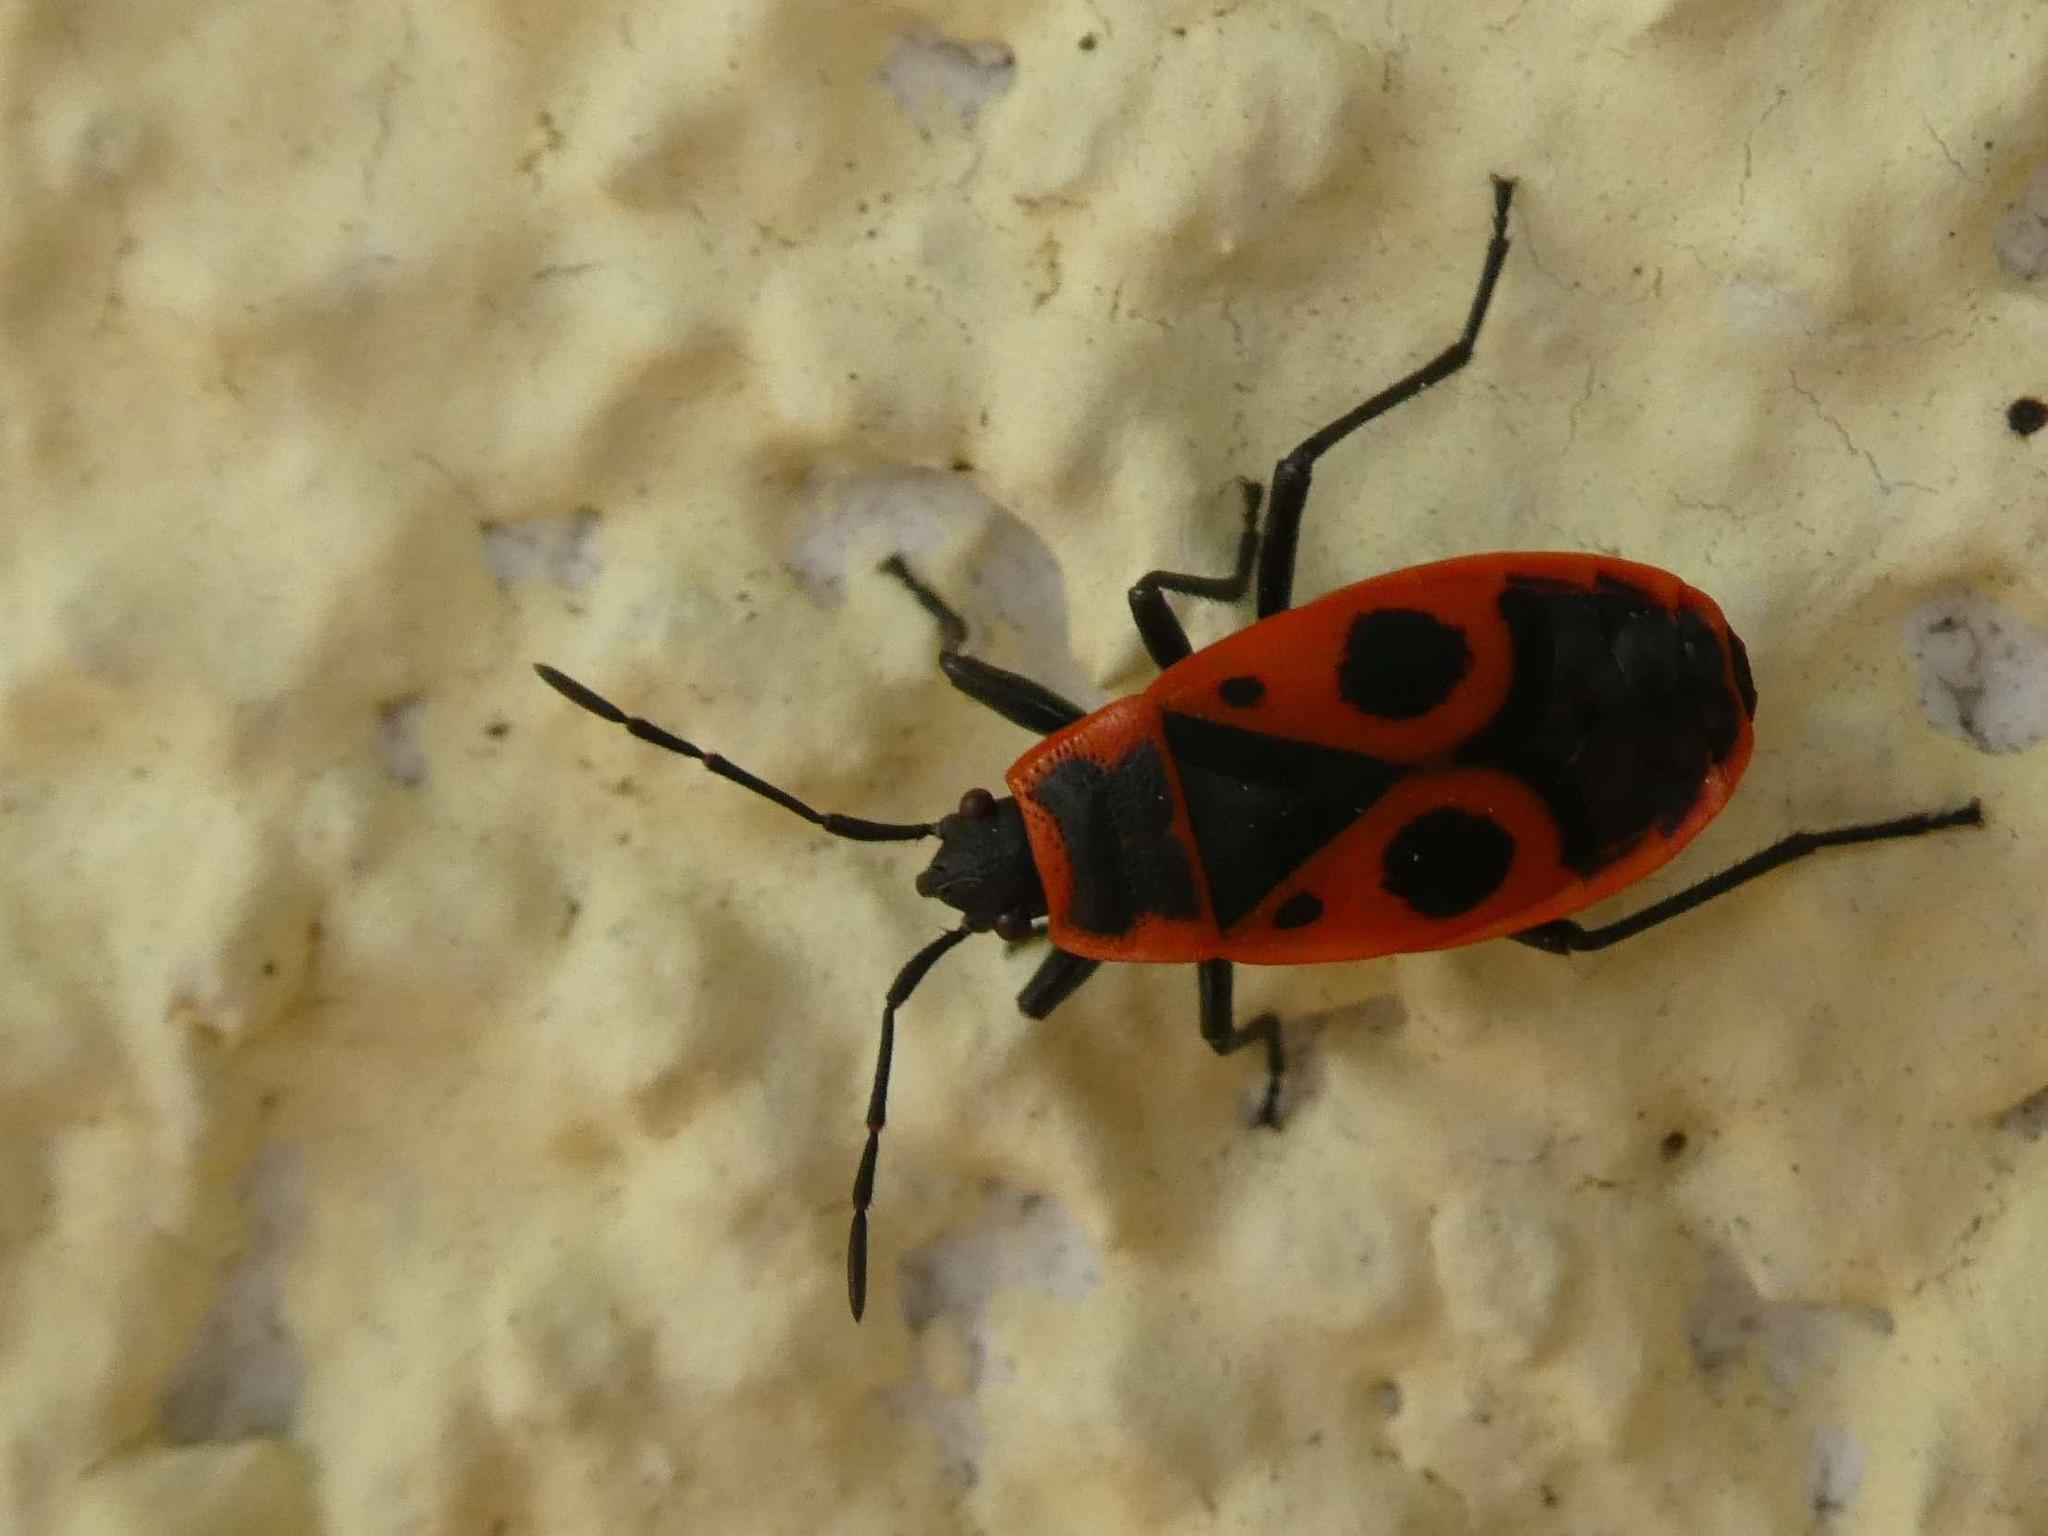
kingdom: Animalia
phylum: Arthropoda
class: Insecta
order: Hemiptera
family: Pyrrhocoridae
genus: Pyrrhocoris
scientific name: Pyrrhocoris apterus
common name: Firebug
